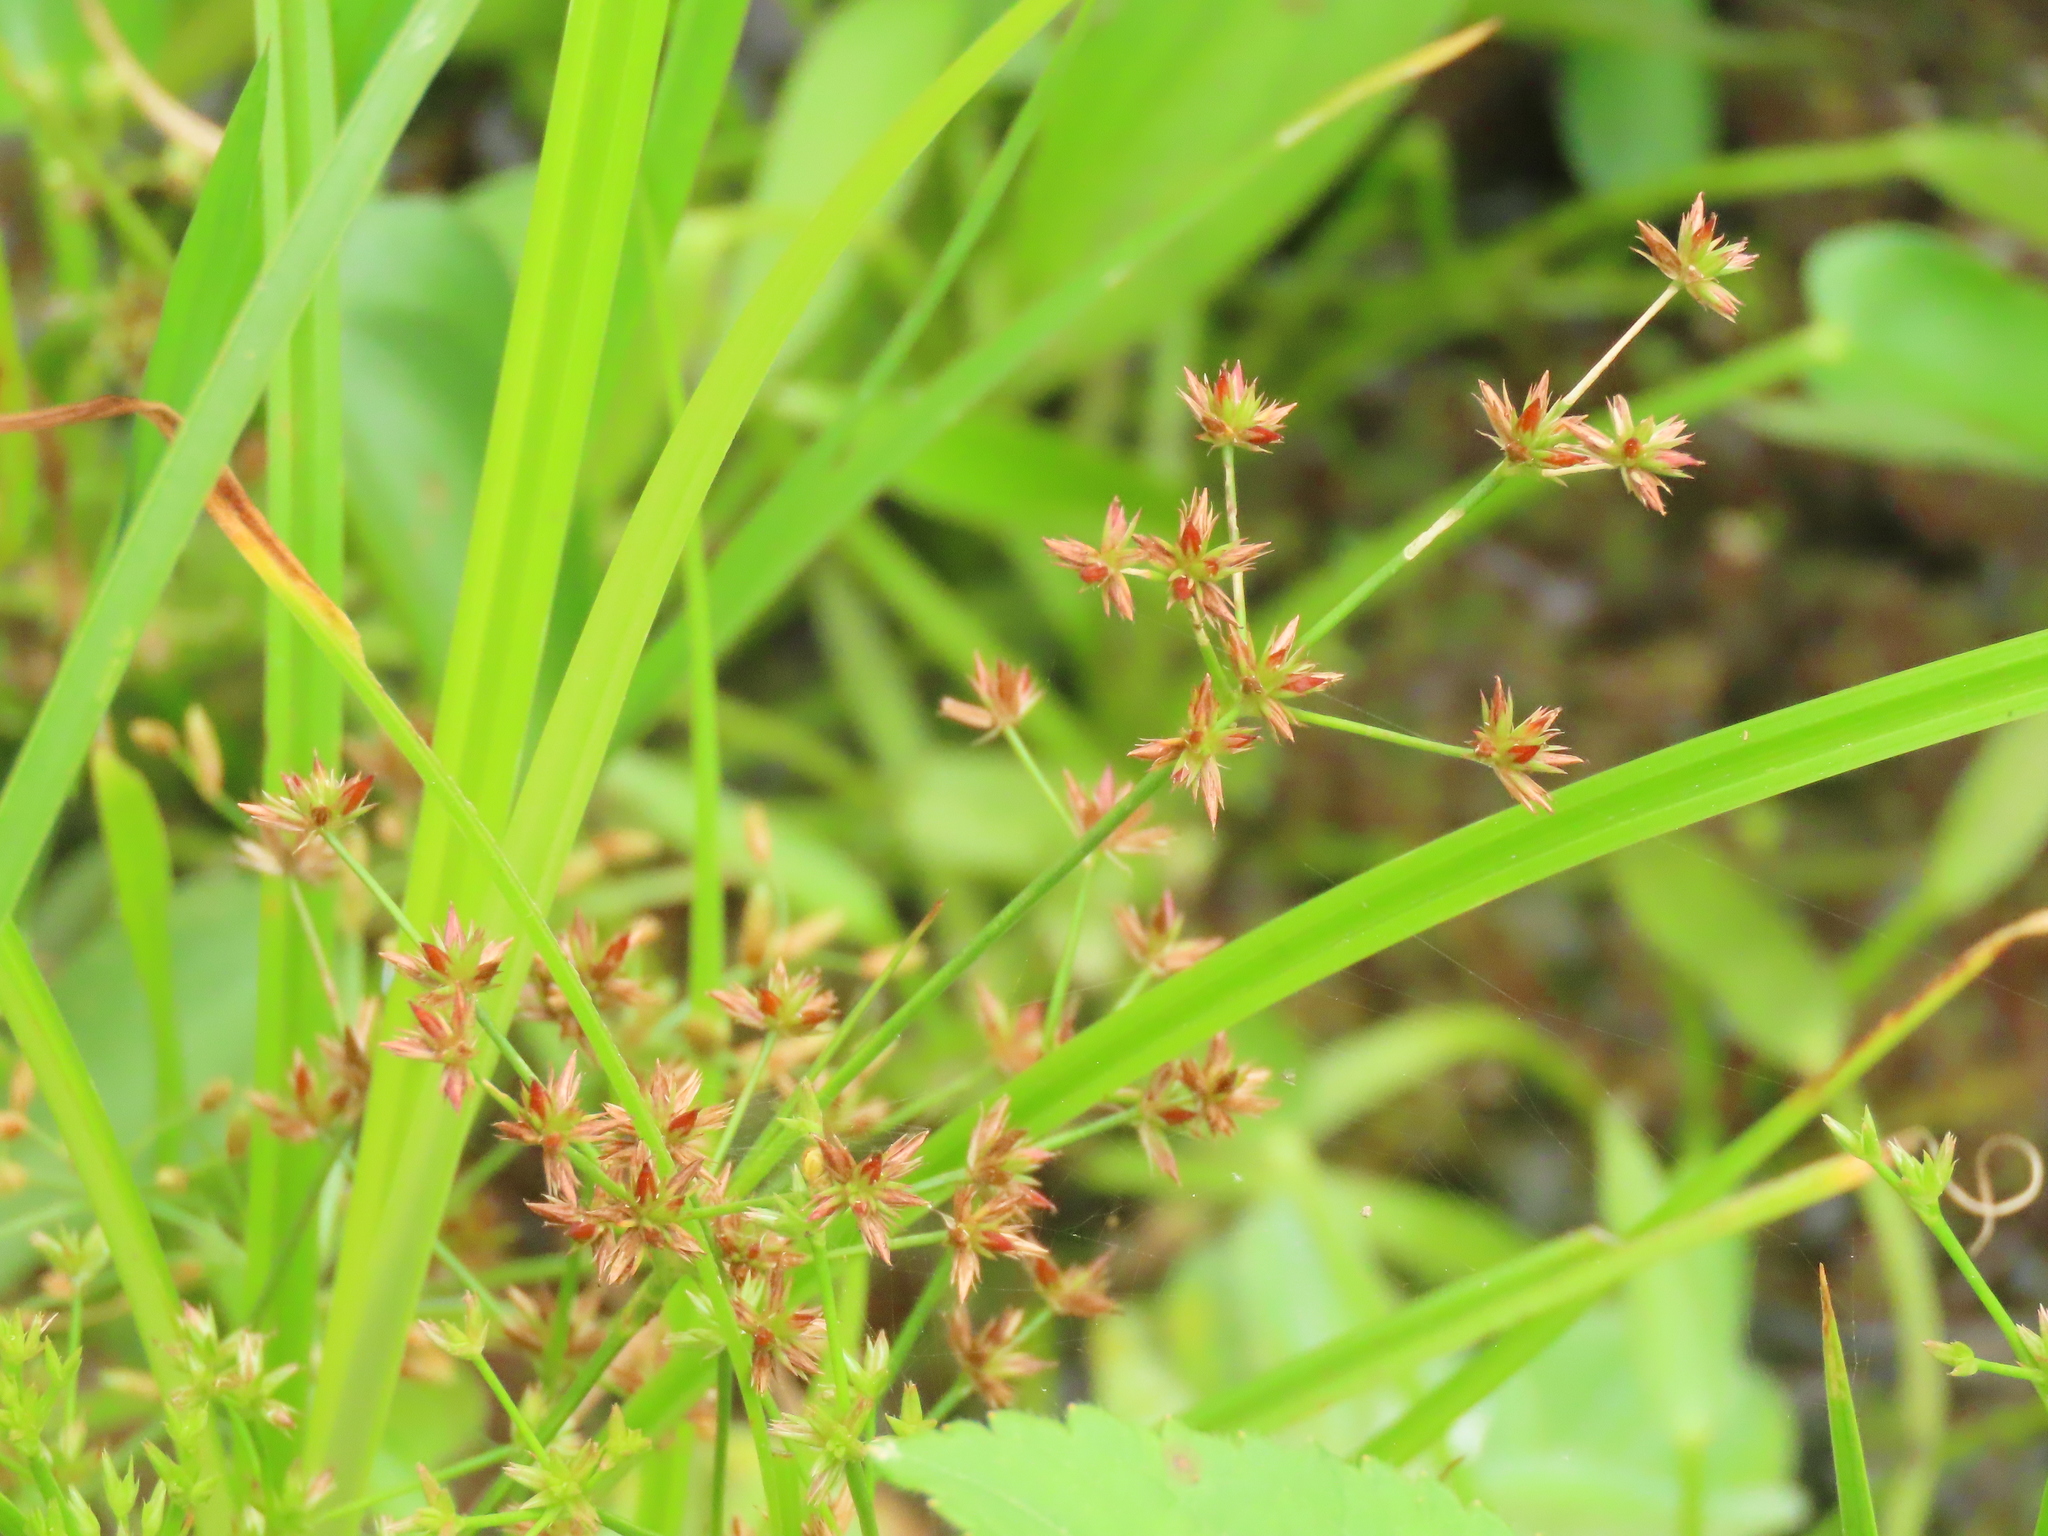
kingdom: Plantae
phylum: Tracheophyta
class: Liliopsida
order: Poales
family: Juncaceae
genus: Juncus
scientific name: Juncus prismatocarpus
